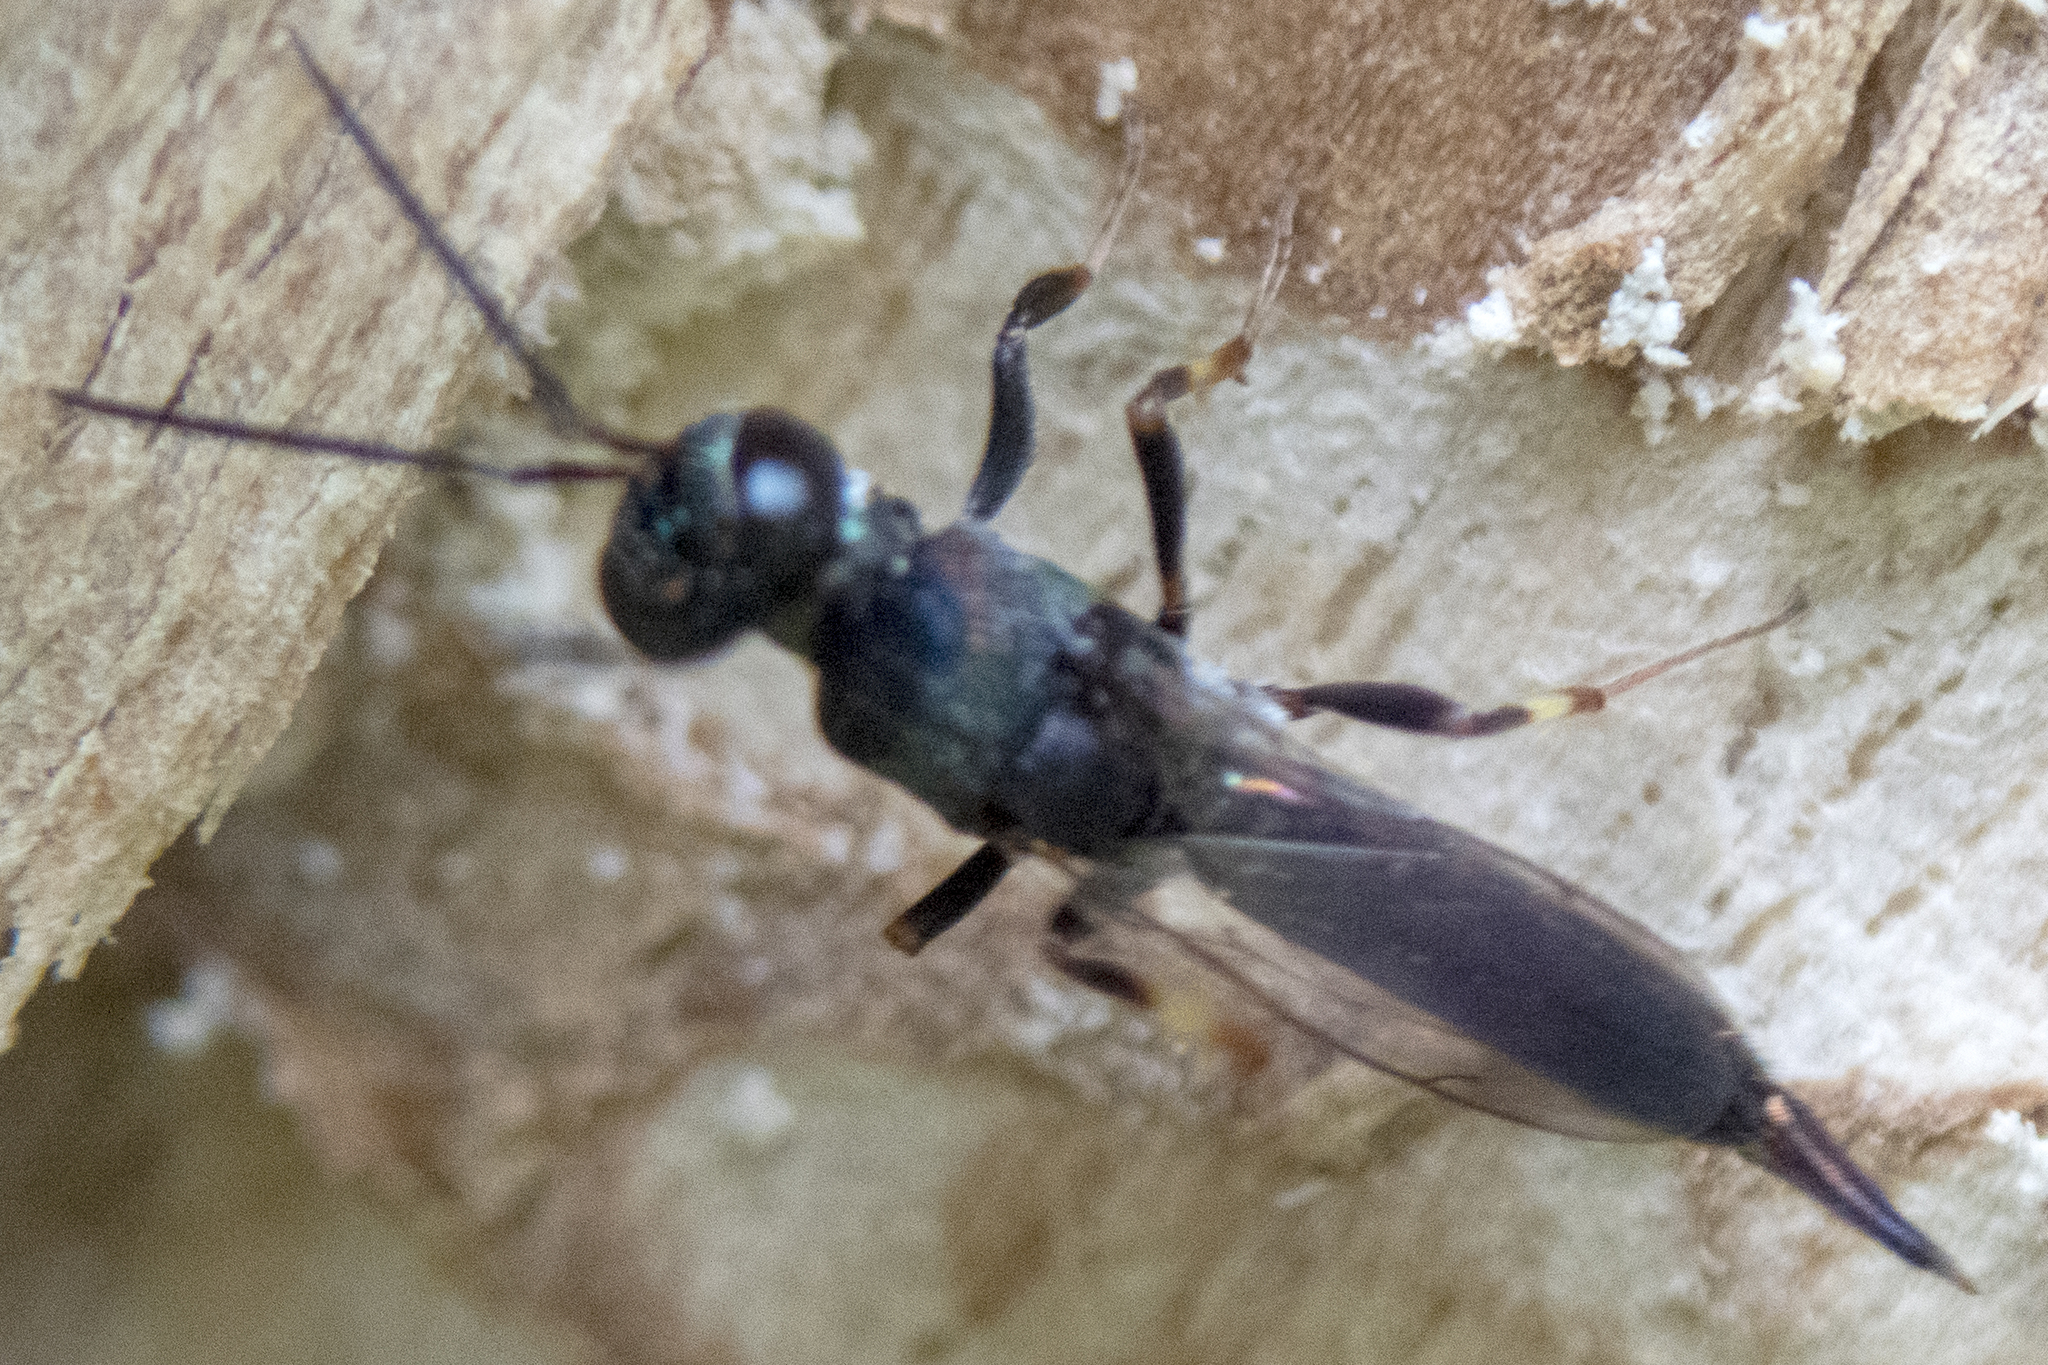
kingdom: Animalia
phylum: Arthropoda
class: Insecta
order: Hymenoptera
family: Eupelmidae
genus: Balcha
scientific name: Balcha indica
